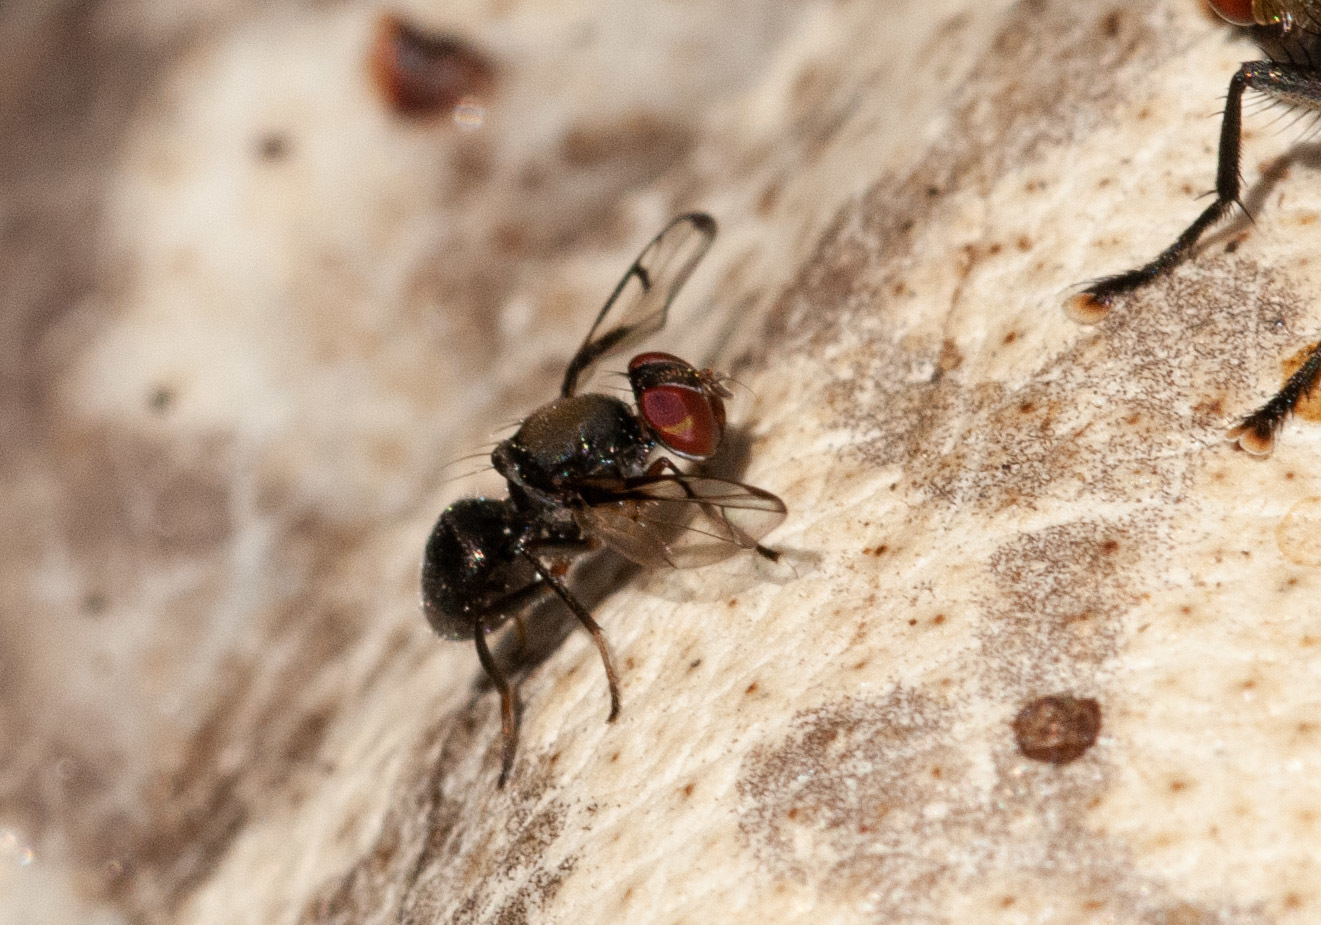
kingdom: Animalia
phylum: Arthropoda
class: Insecta
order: Diptera
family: Platystomatidae
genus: Pogonortalis
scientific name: Pogonortalis doclea
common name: Boatman fly
